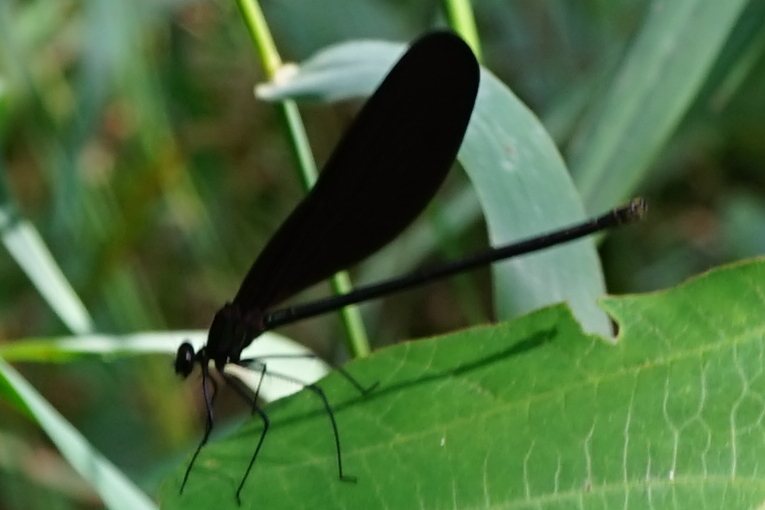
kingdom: Animalia
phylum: Arthropoda
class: Insecta
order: Odonata
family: Calopterygidae
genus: Atrocalopteryx
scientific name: Atrocalopteryx atrata
